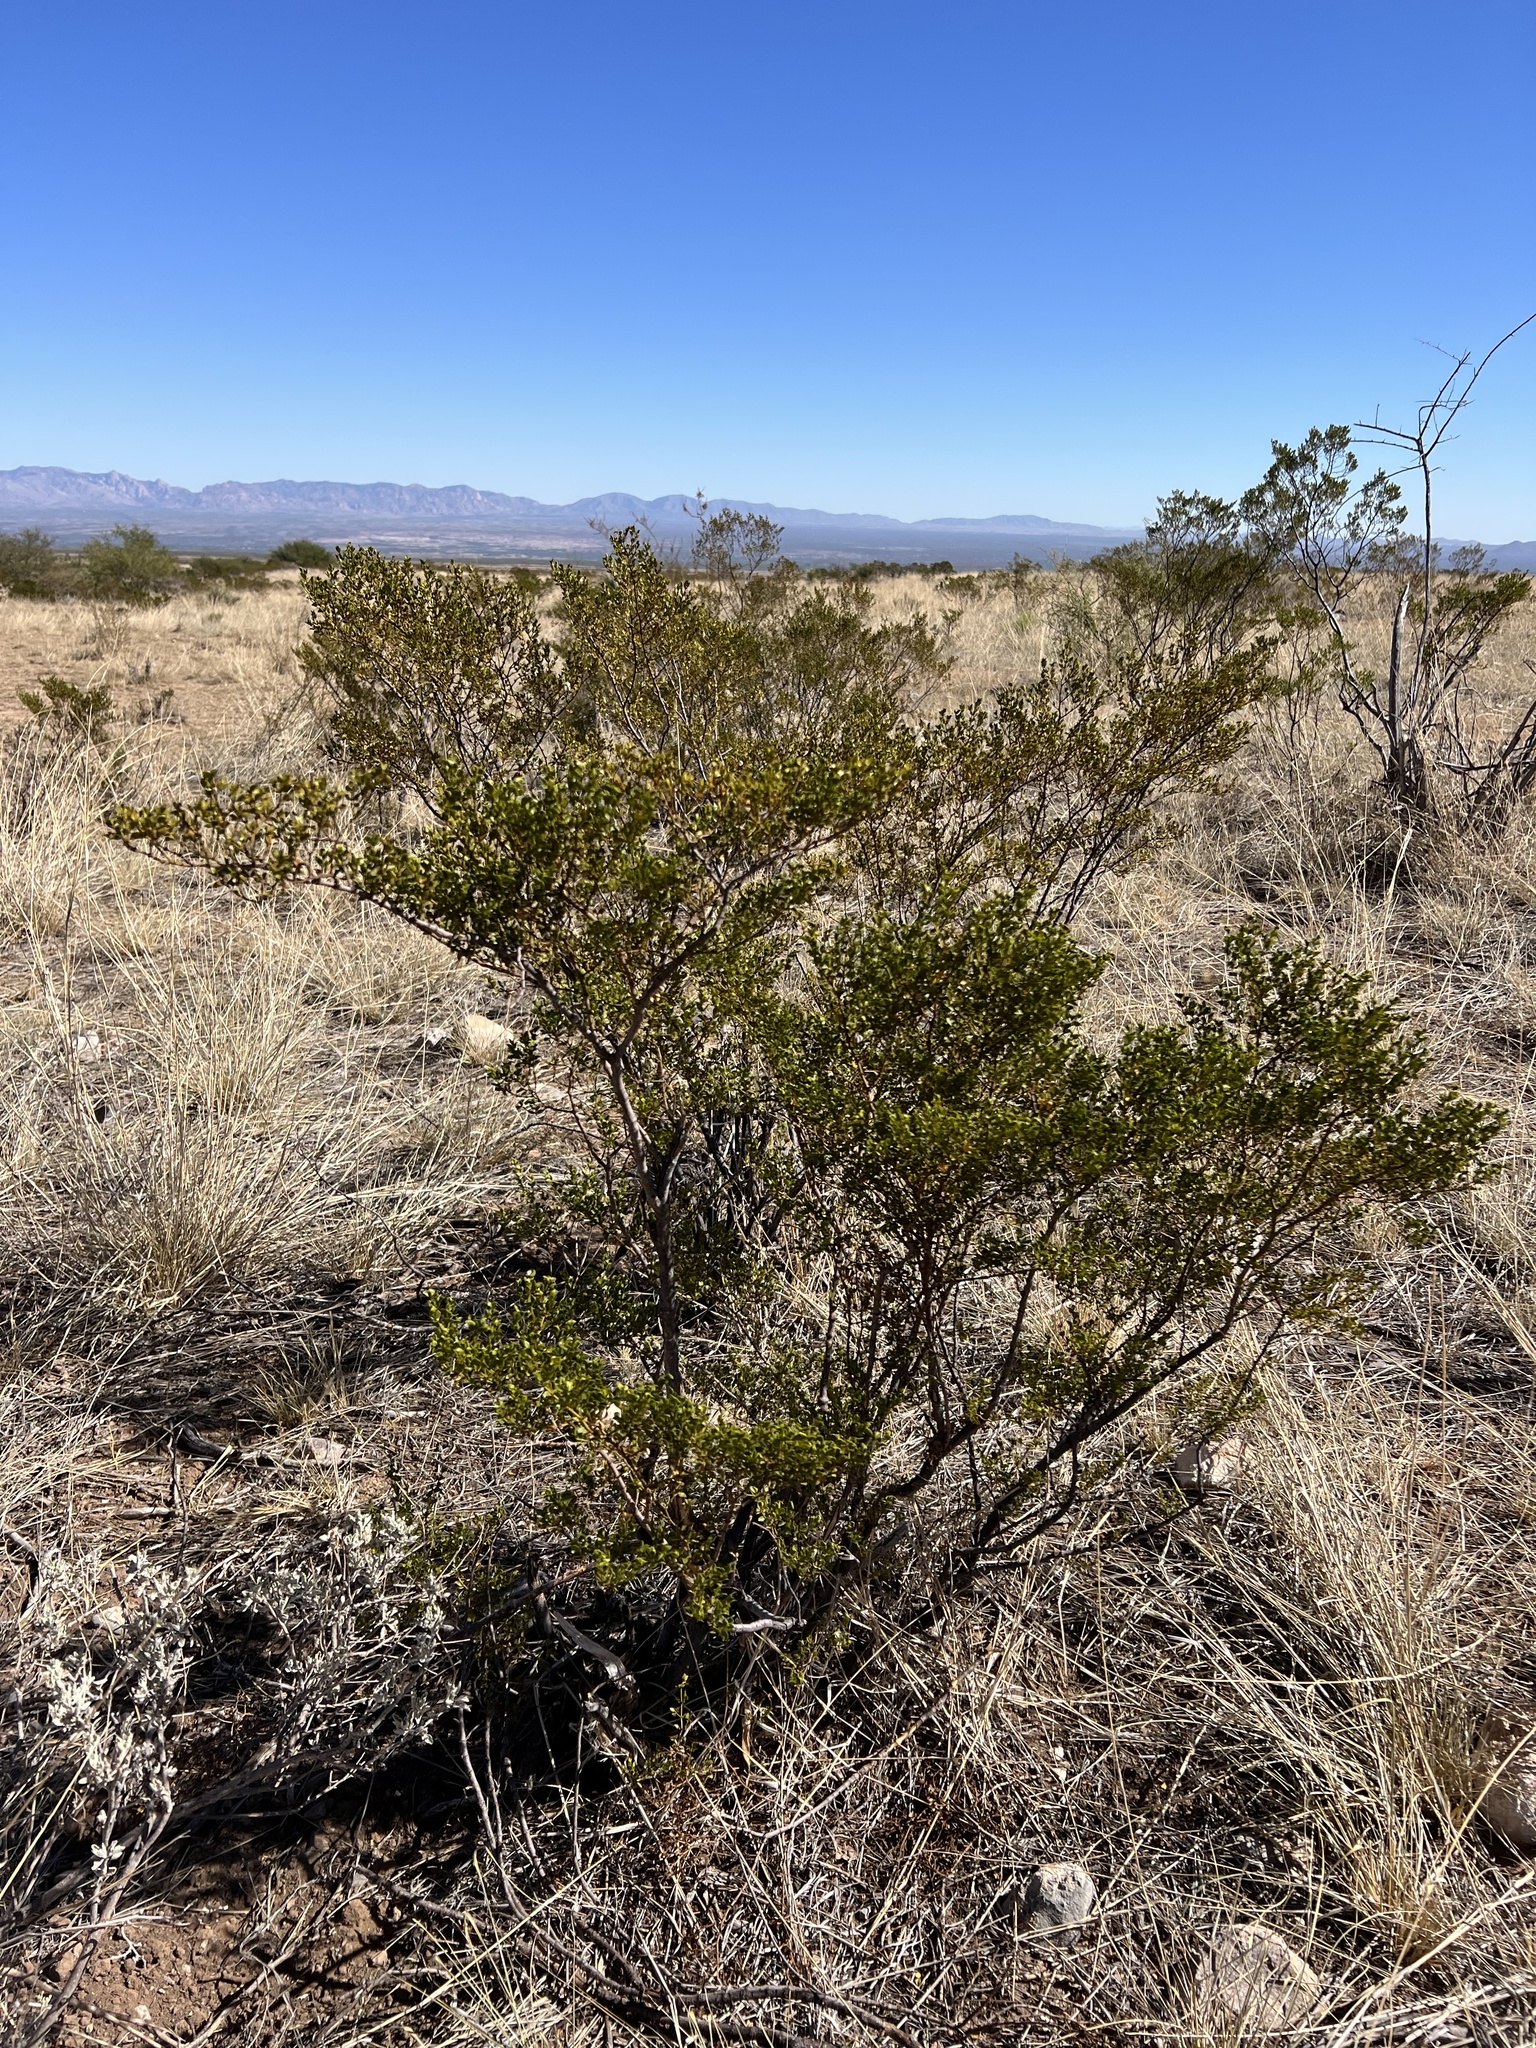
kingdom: Plantae
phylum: Tracheophyta
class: Magnoliopsida
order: Zygophyllales
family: Zygophyllaceae
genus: Larrea
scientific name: Larrea tridentata
